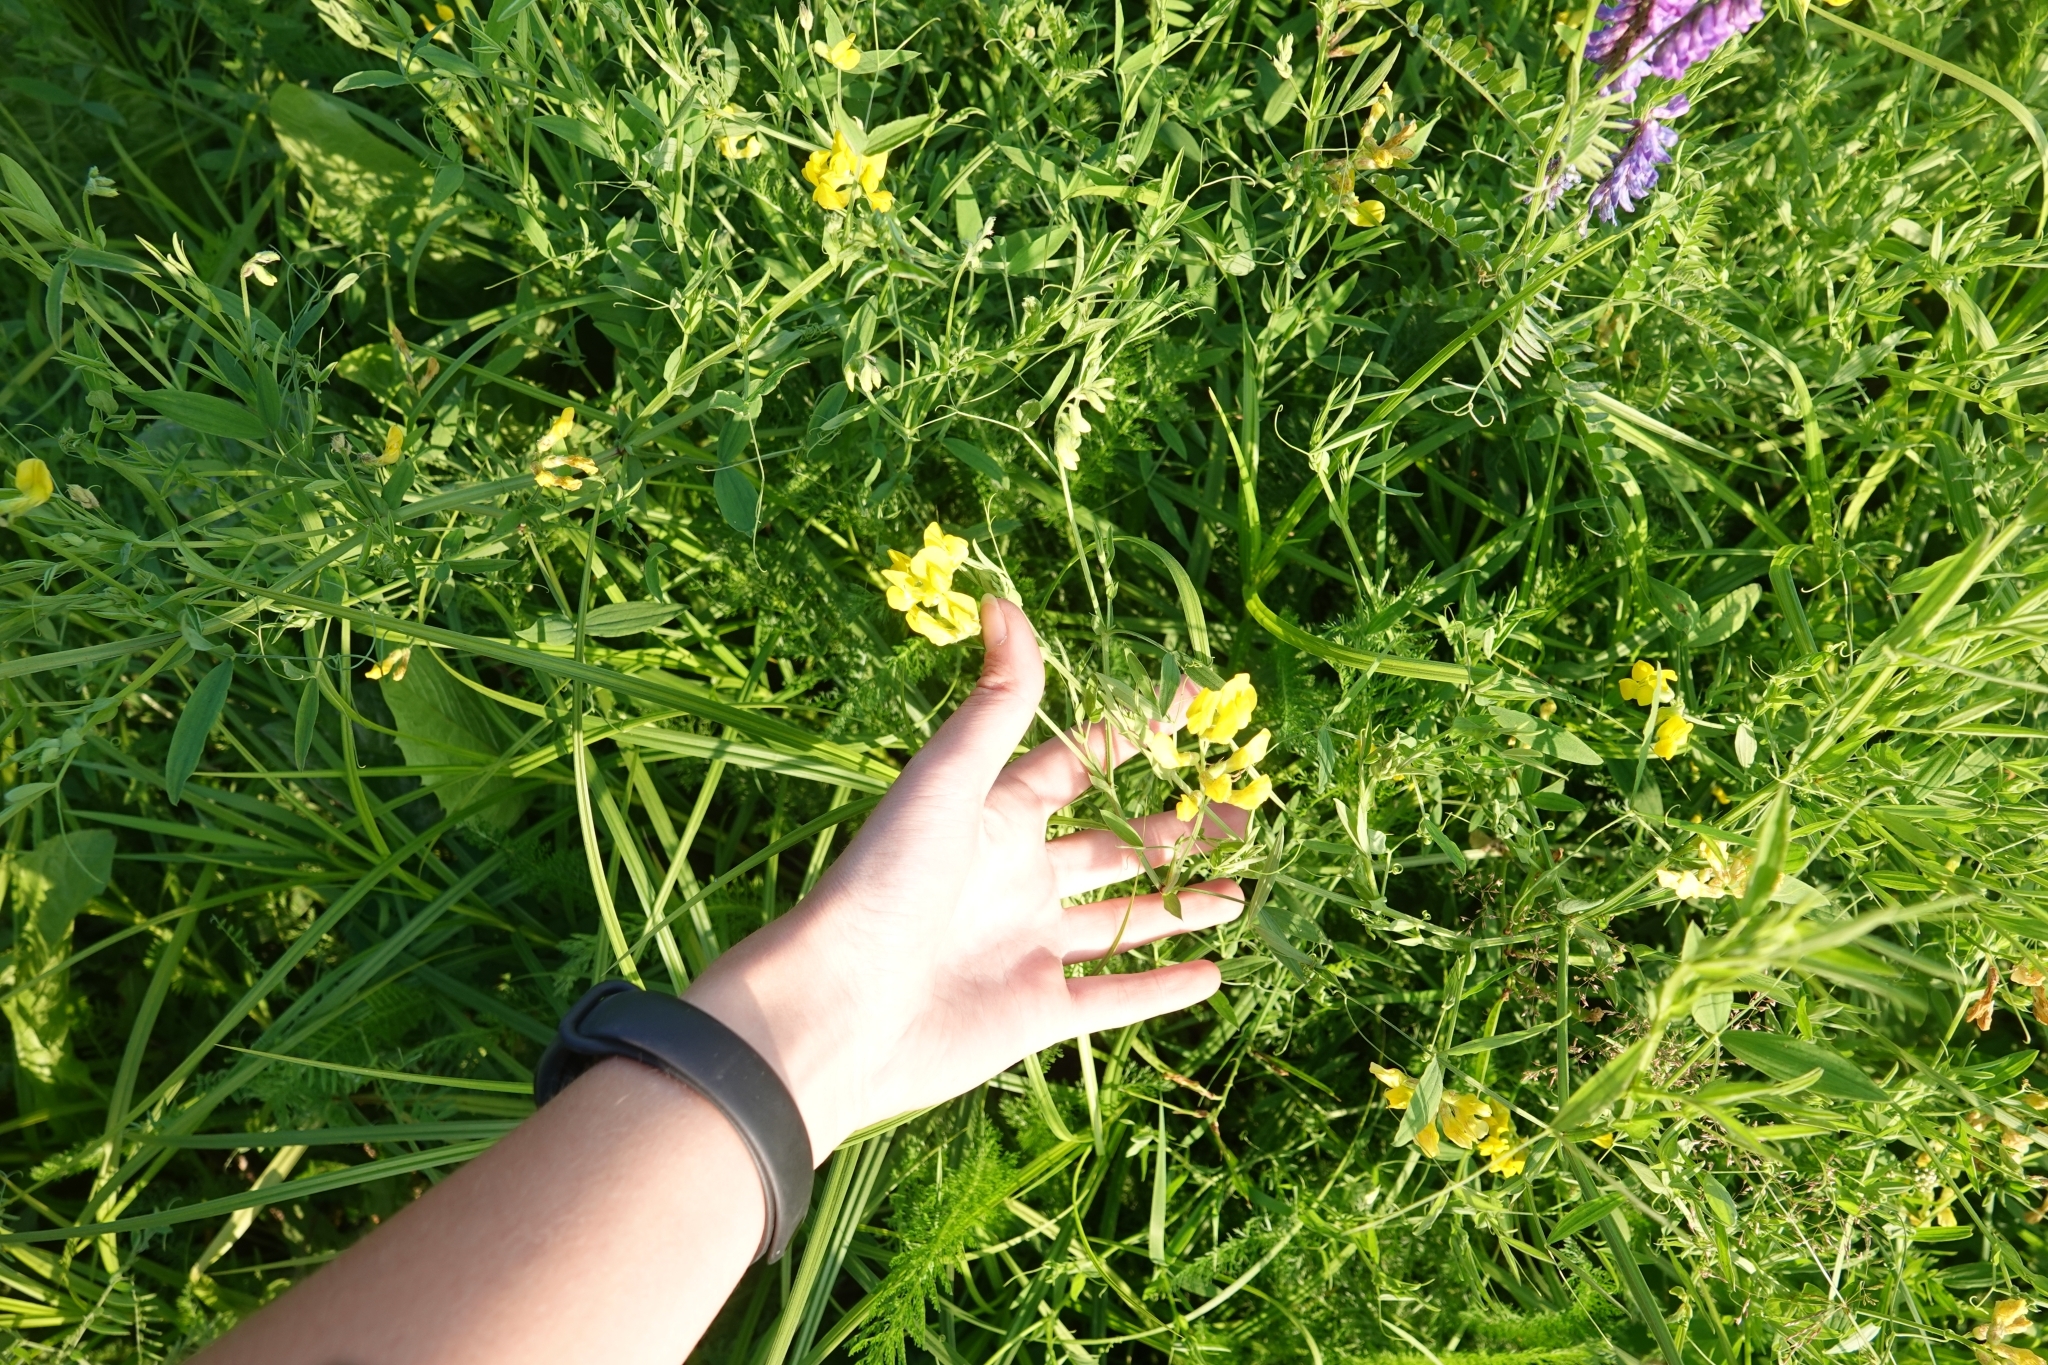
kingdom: Plantae
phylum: Tracheophyta
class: Magnoliopsida
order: Fabales
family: Fabaceae
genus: Lathyrus
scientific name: Lathyrus pratensis
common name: Meadow vetchling
